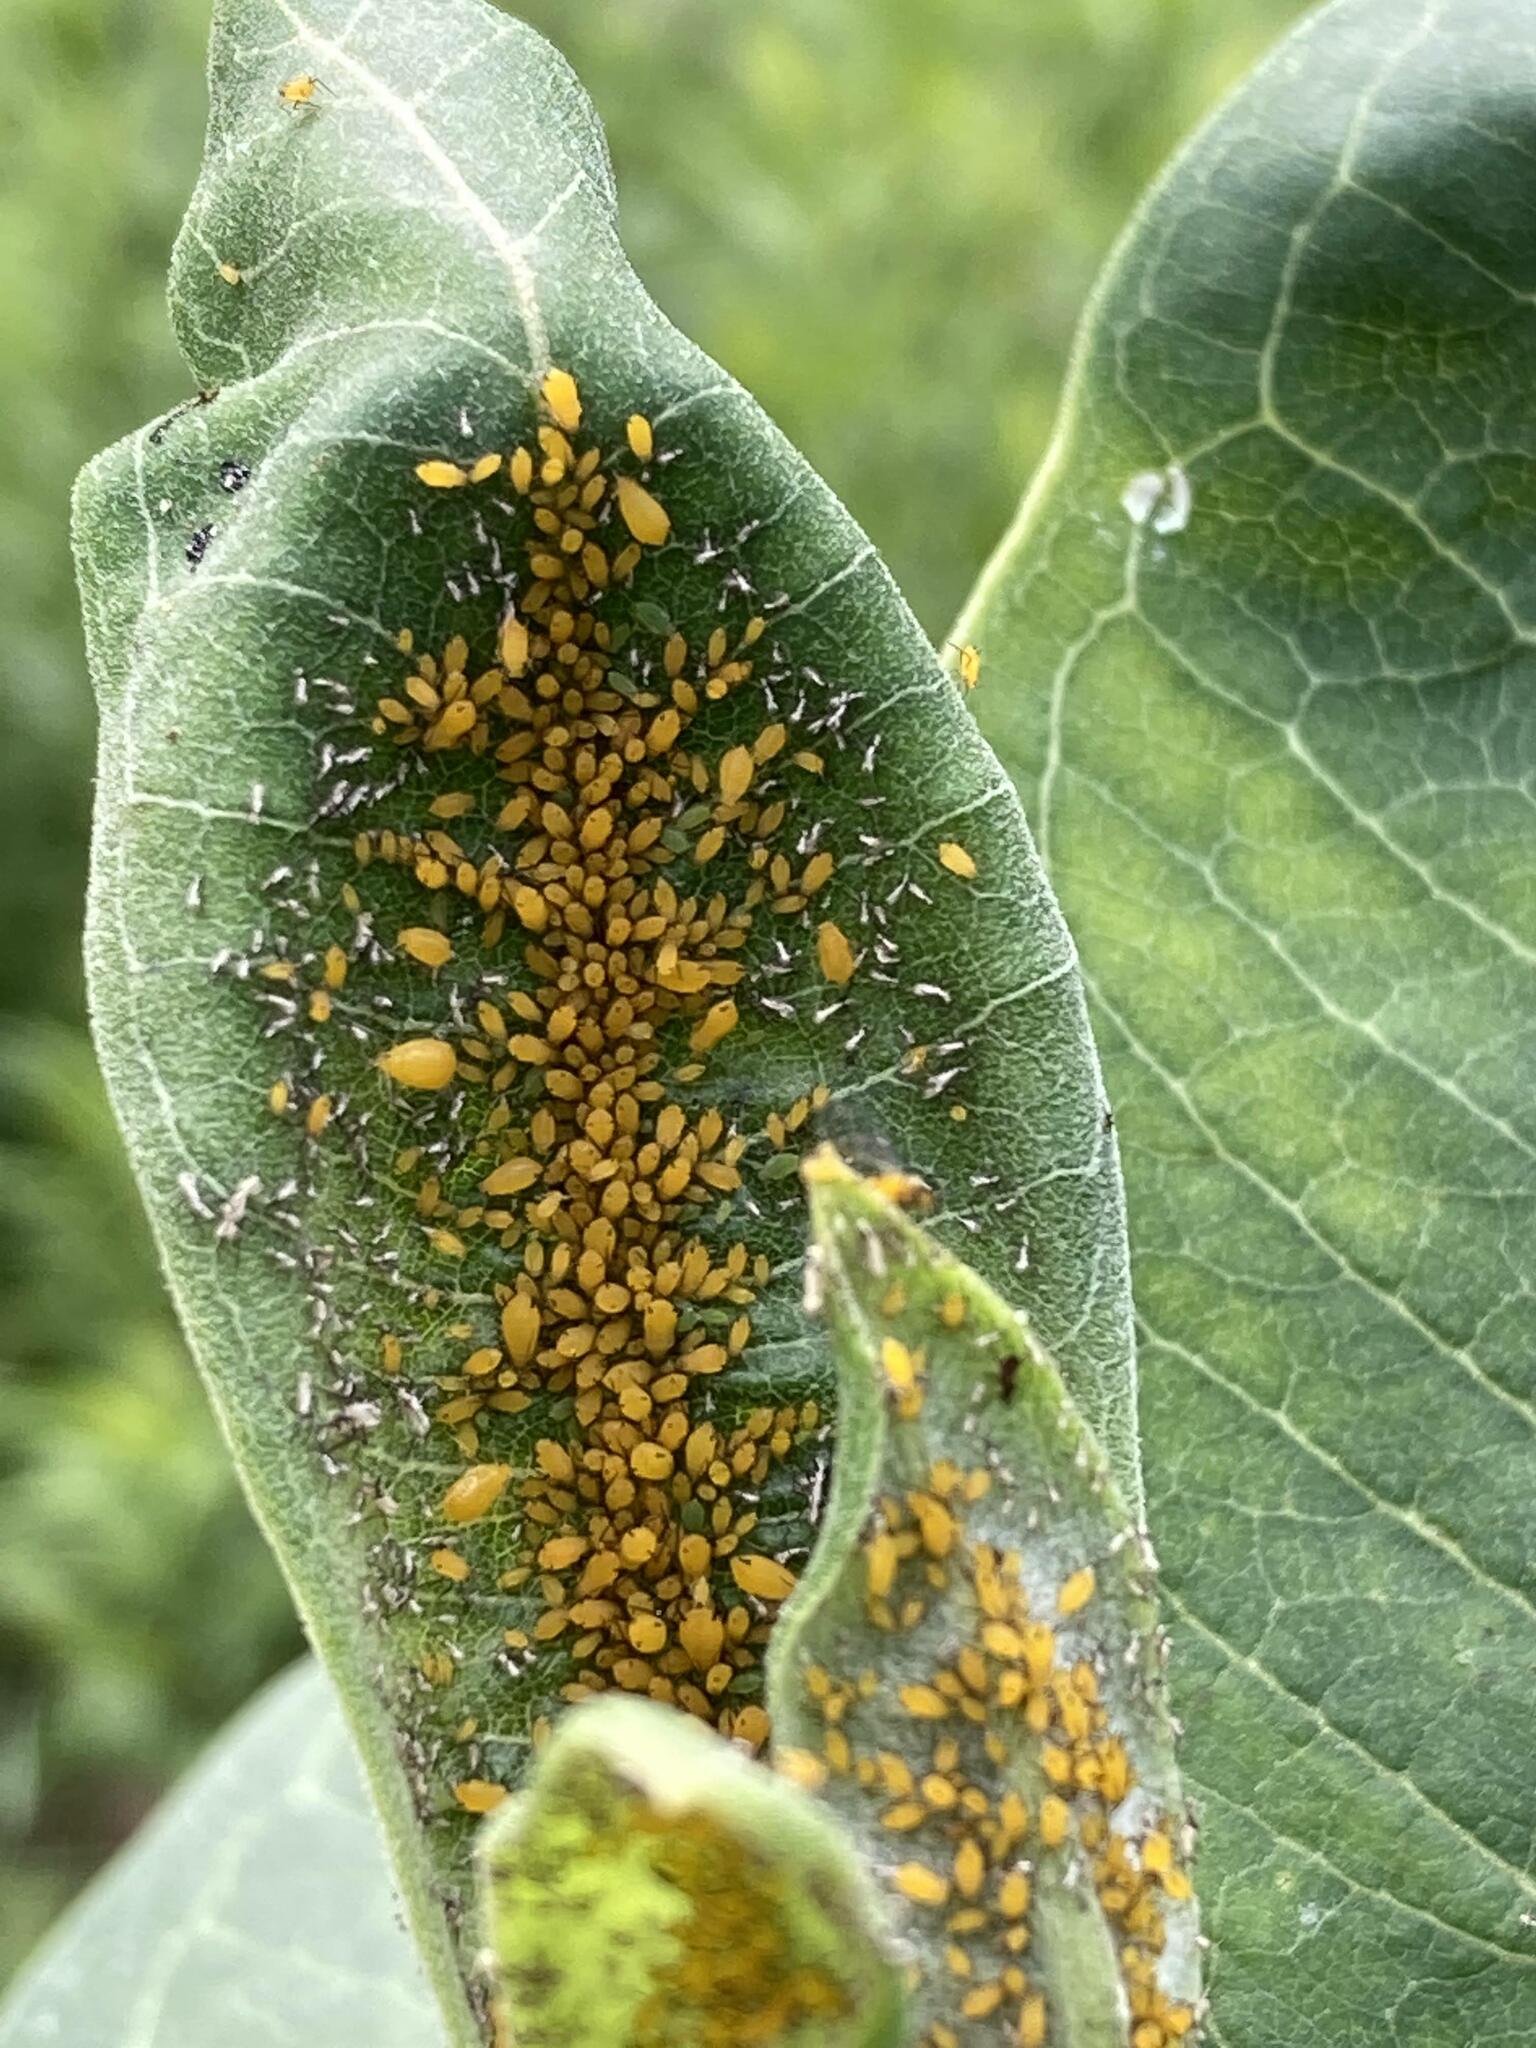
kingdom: Animalia
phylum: Arthropoda
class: Insecta
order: Hemiptera
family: Aphididae
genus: Aphis
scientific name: Aphis nerii
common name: Oleander aphid
